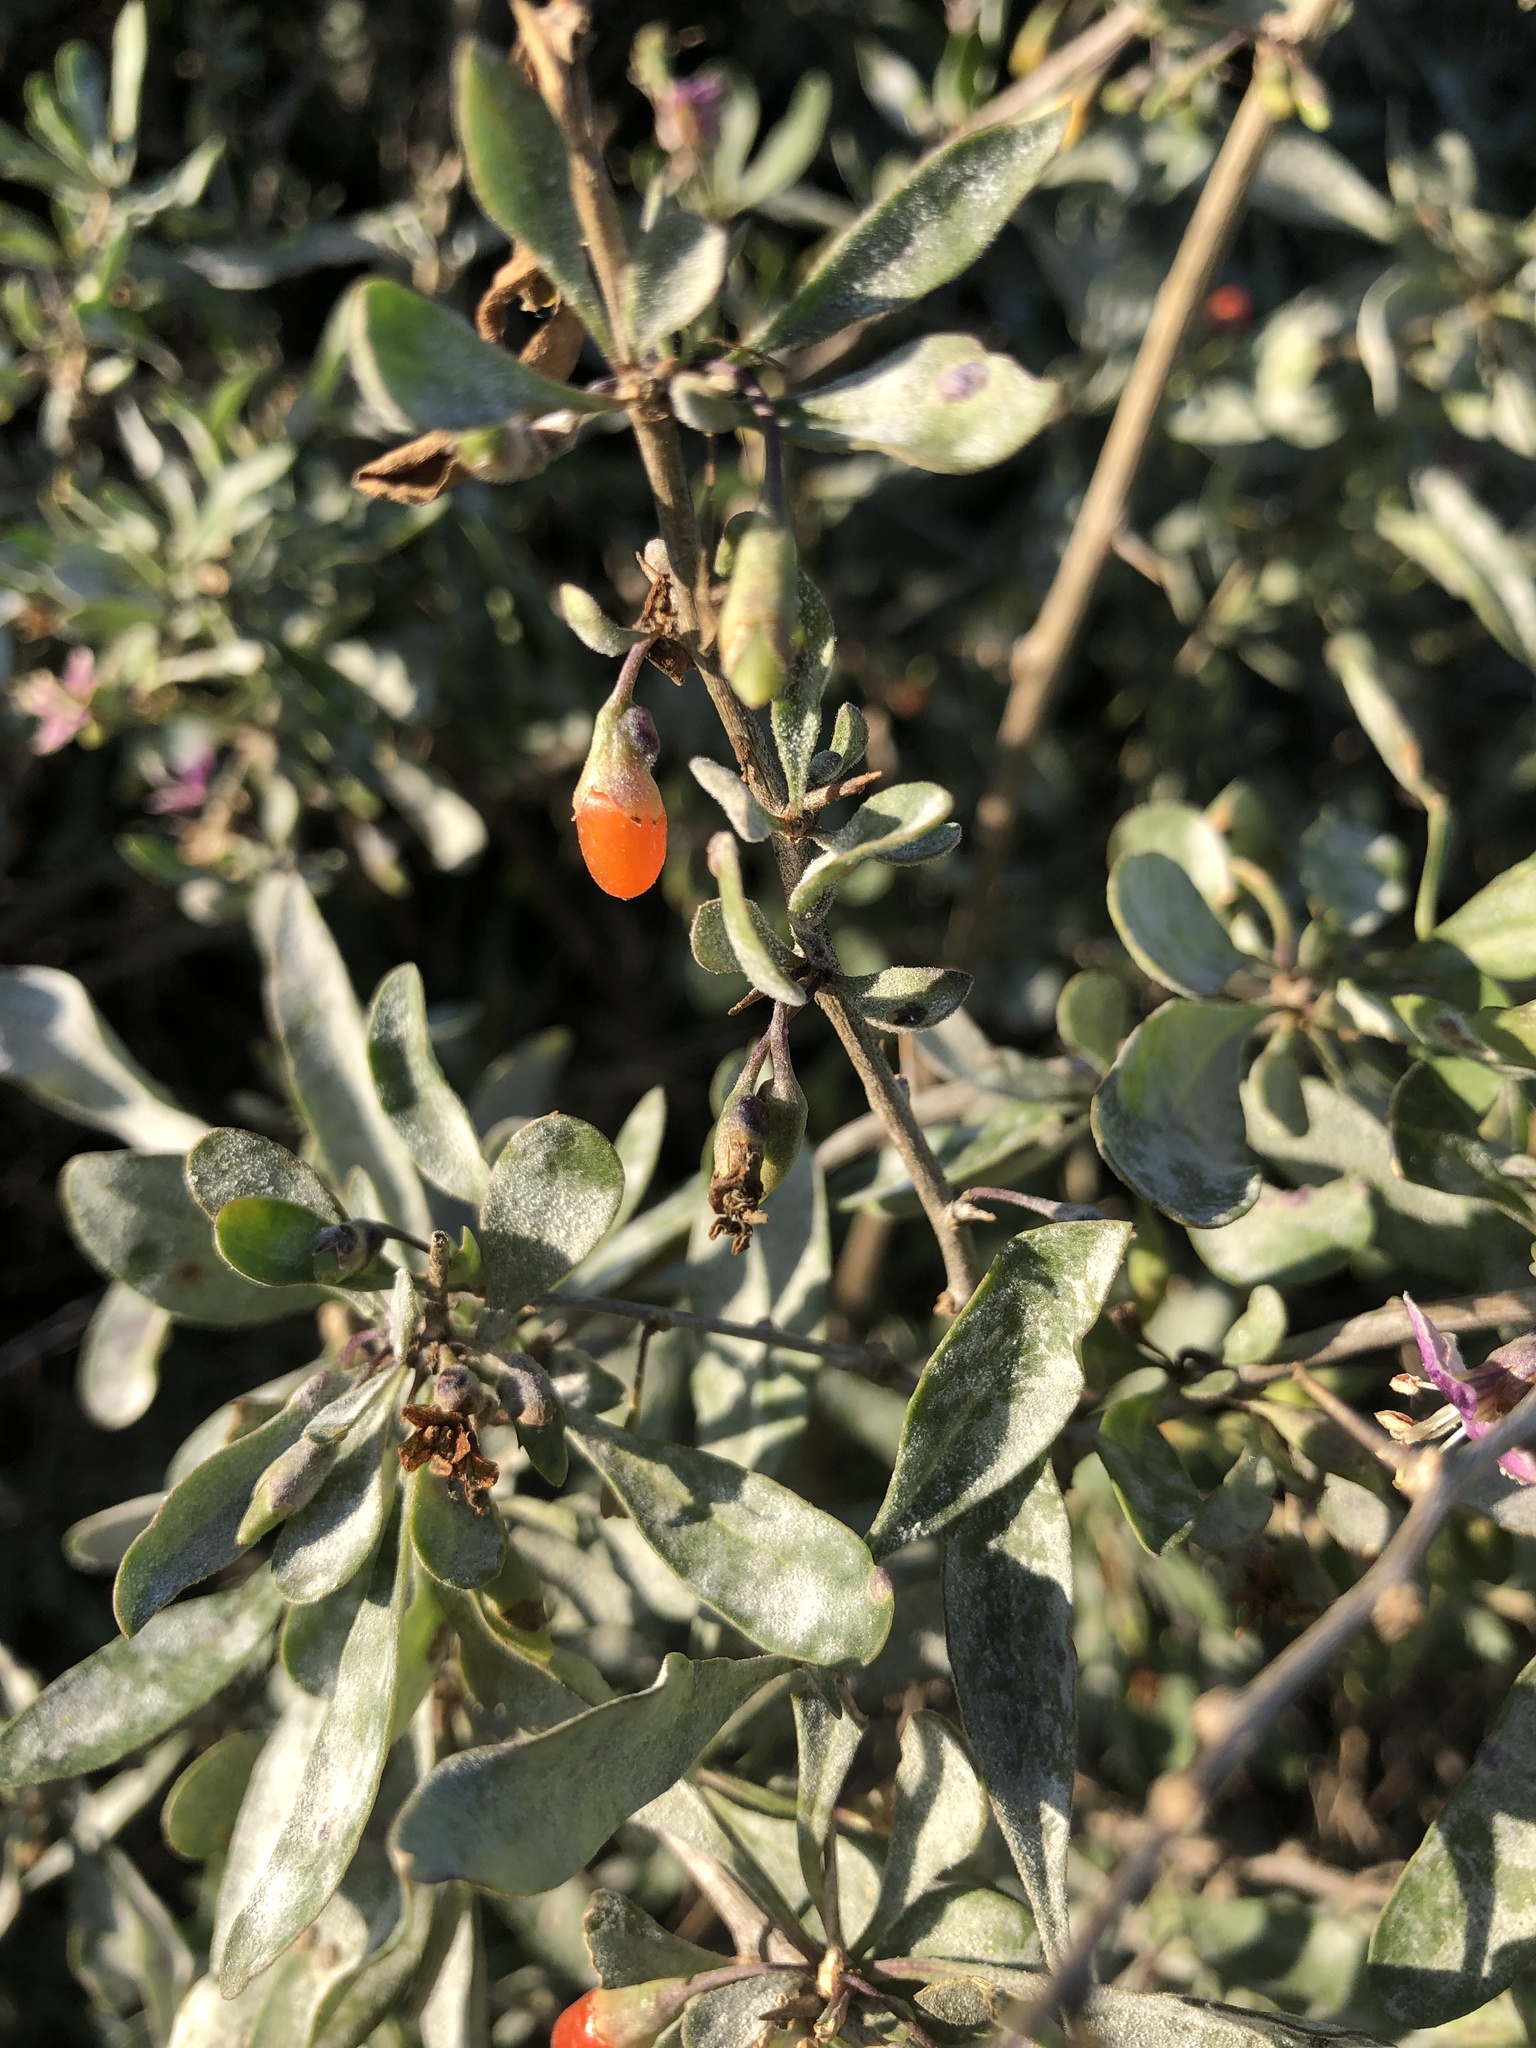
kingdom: Plantae
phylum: Tracheophyta
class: Magnoliopsida
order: Solanales
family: Solanaceae
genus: Lycium
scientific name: Lycium barbarum
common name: Duke of argyll's teaplant
